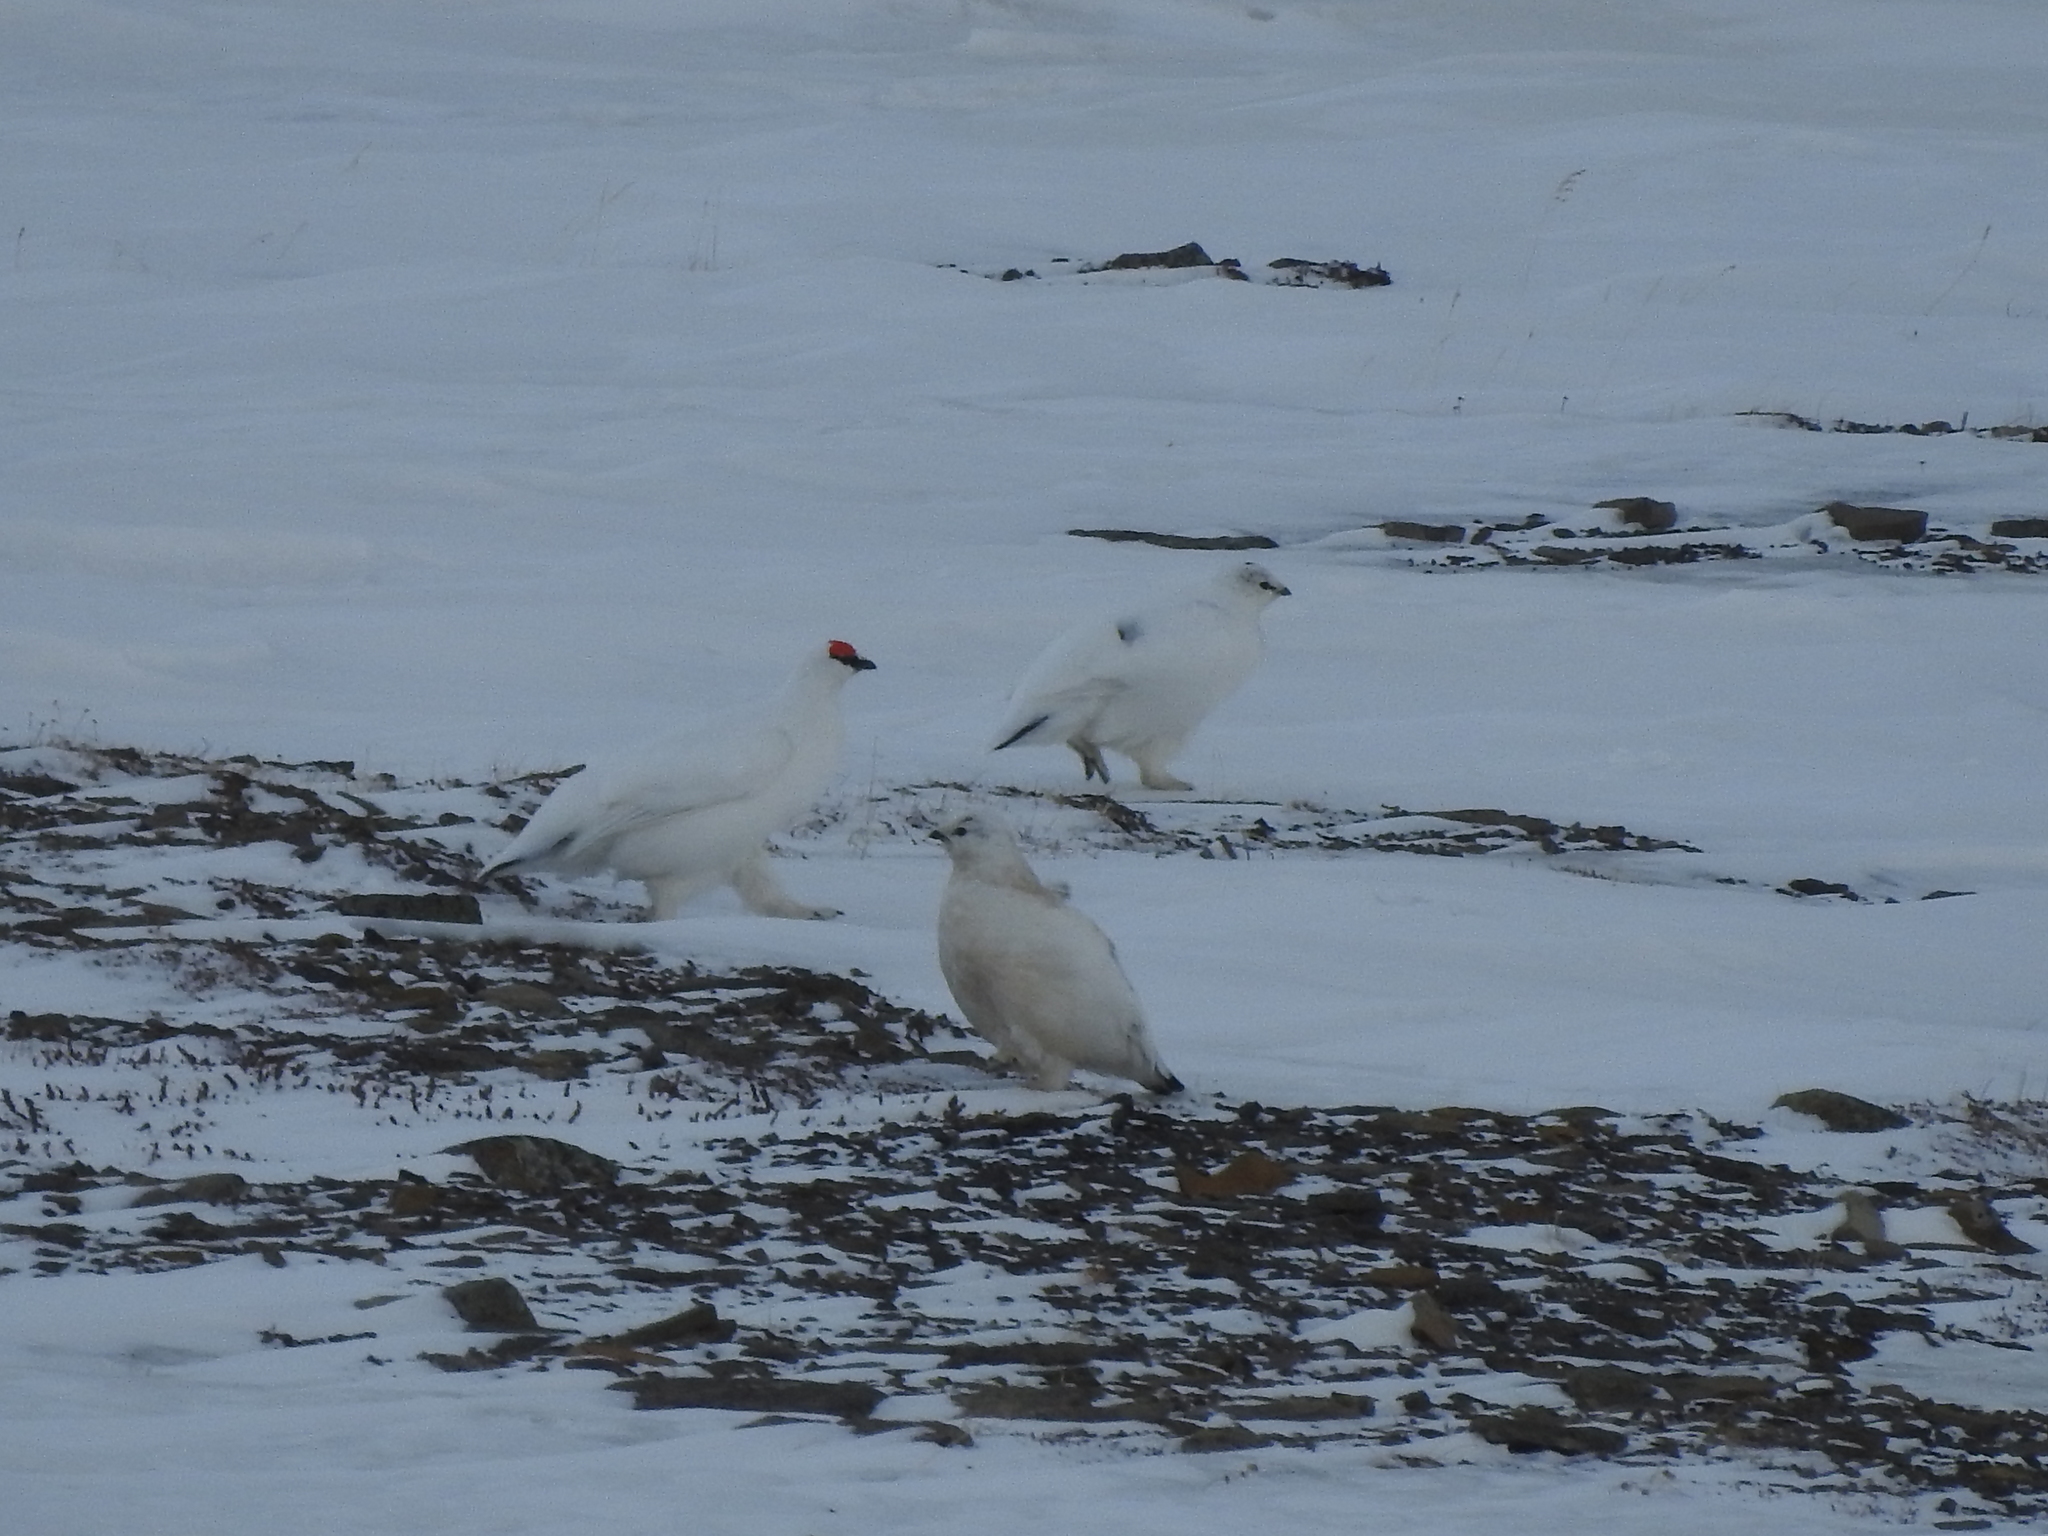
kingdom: Animalia
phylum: Chordata
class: Aves
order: Galliformes
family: Phasianidae
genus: Lagopus
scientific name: Lagopus muta
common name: Rock ptarmigan
